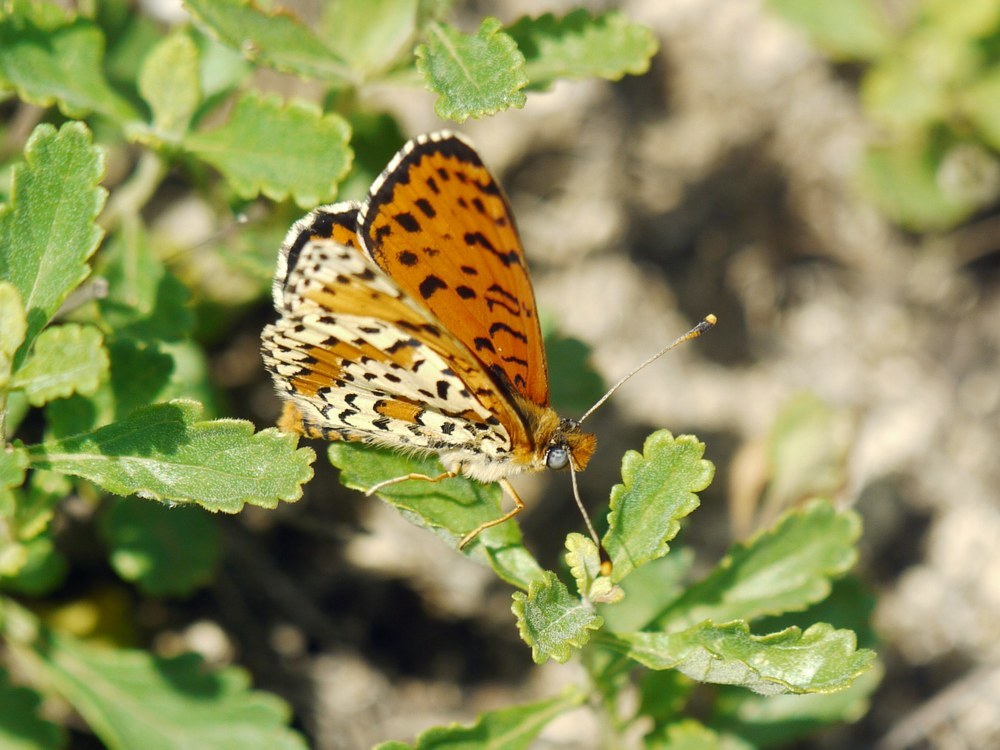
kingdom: Animalia
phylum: Arthropoda
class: Insecta
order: Lepidoptera
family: Nymphalidae
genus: Melitaea
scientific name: Melitaea didyma
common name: Spotted fritillary
